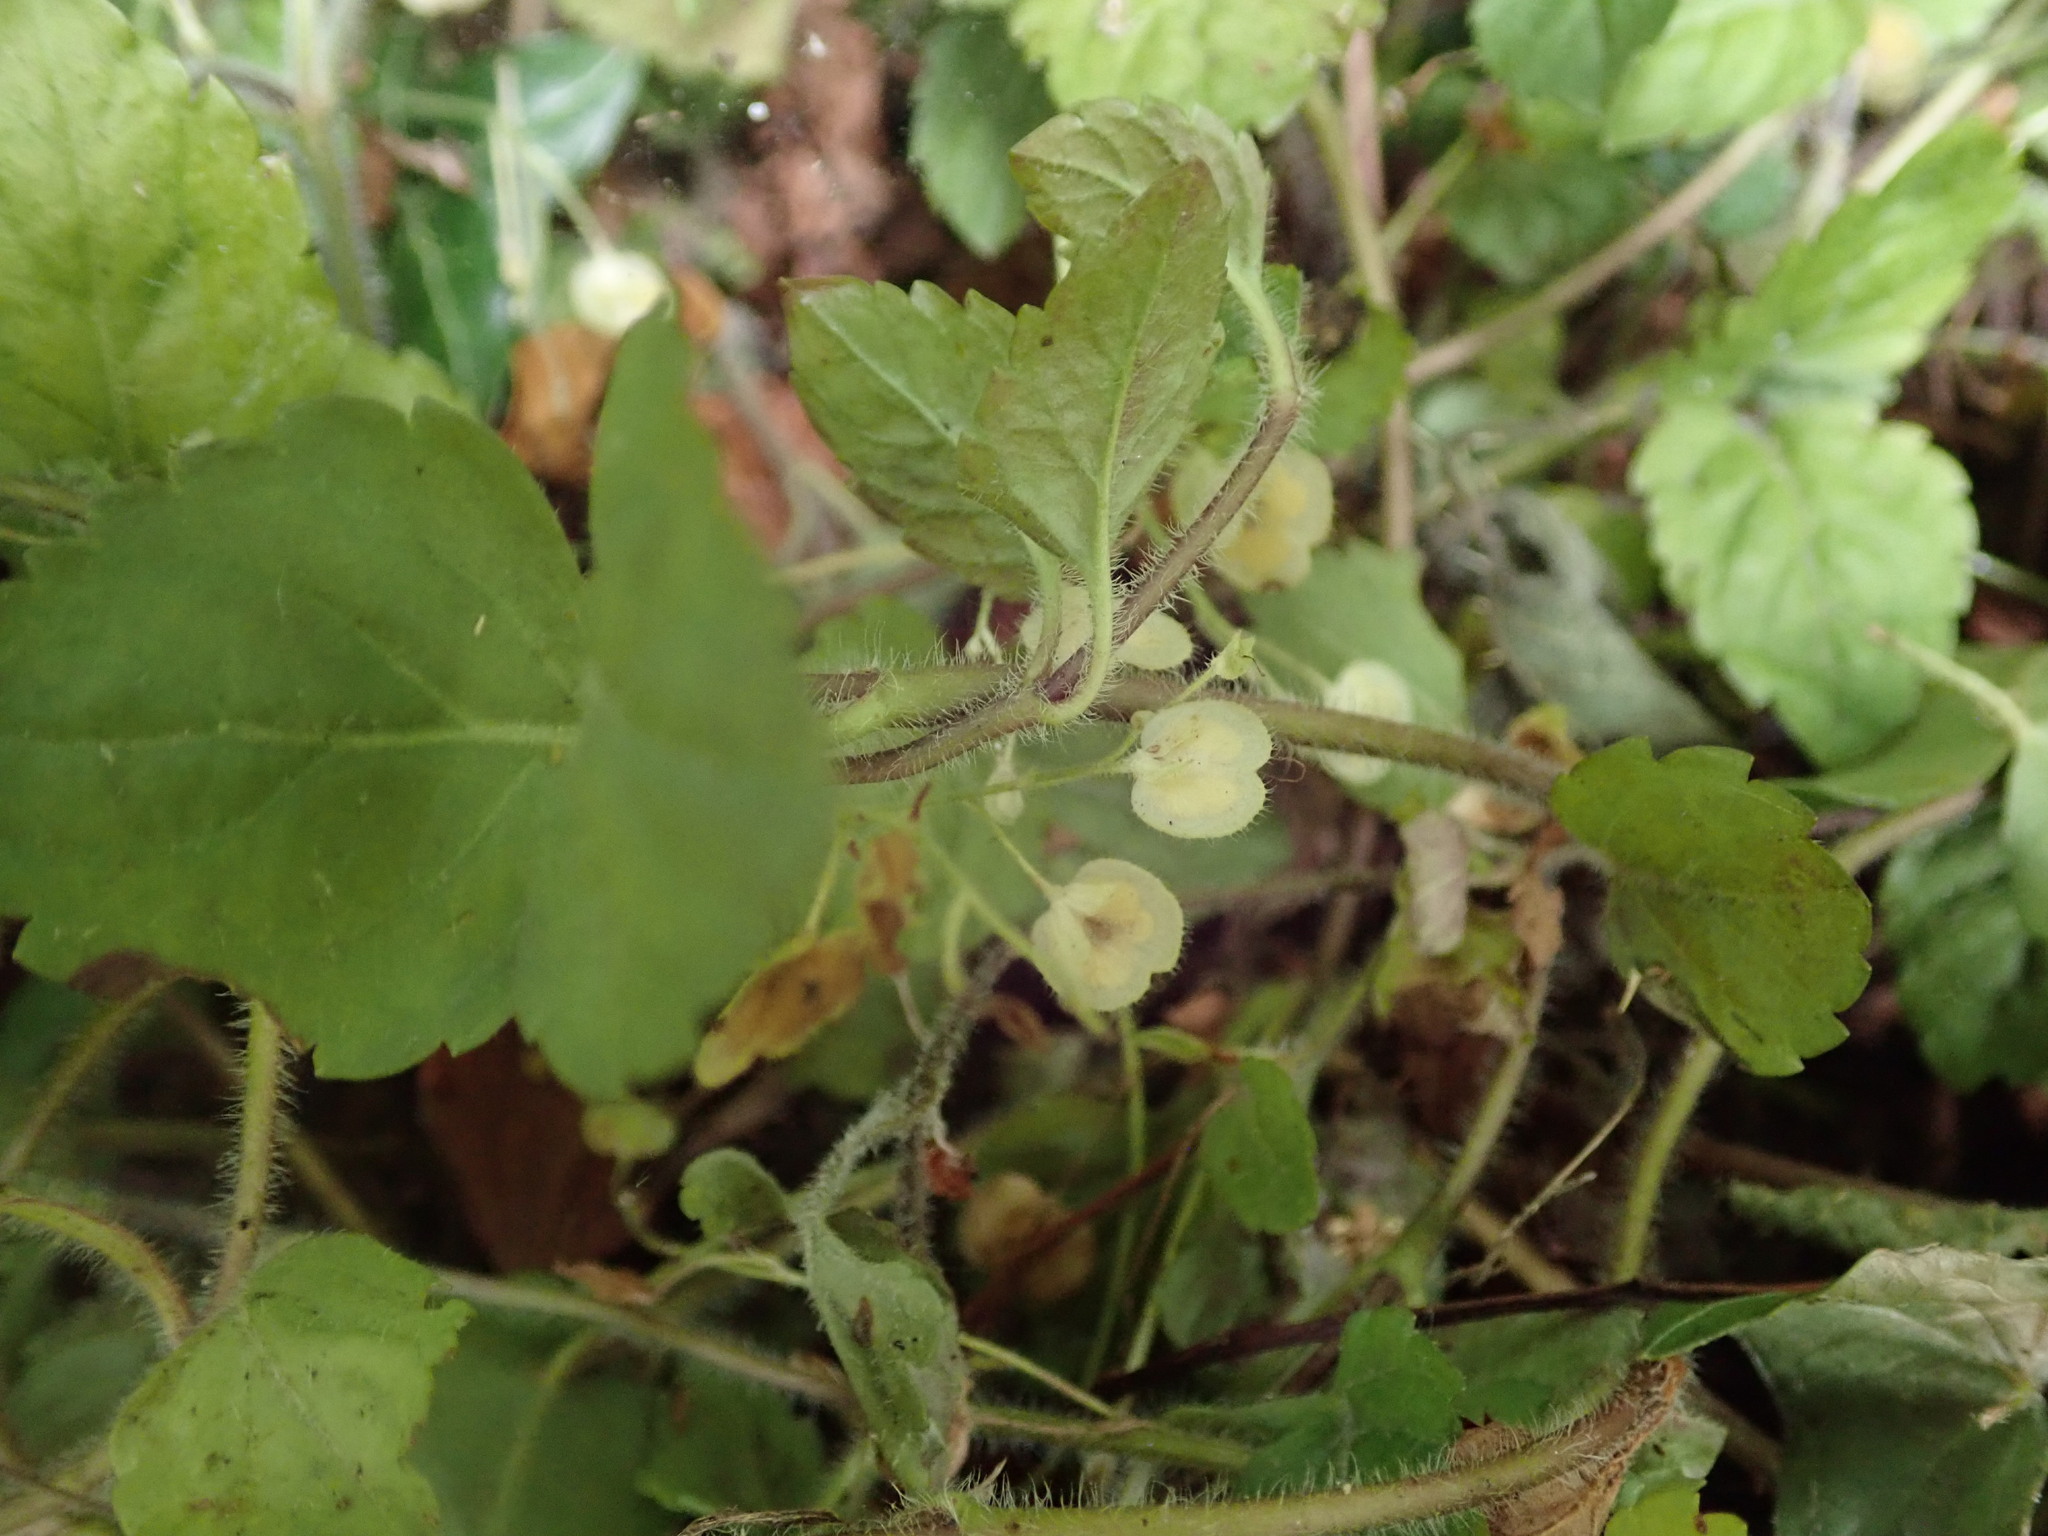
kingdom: Plantae
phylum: Tracheophyta
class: Magnoliopsida
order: Lamiales
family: Plantaginaceae
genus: Veronica
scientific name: Veronica montana
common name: Wood speedwell
